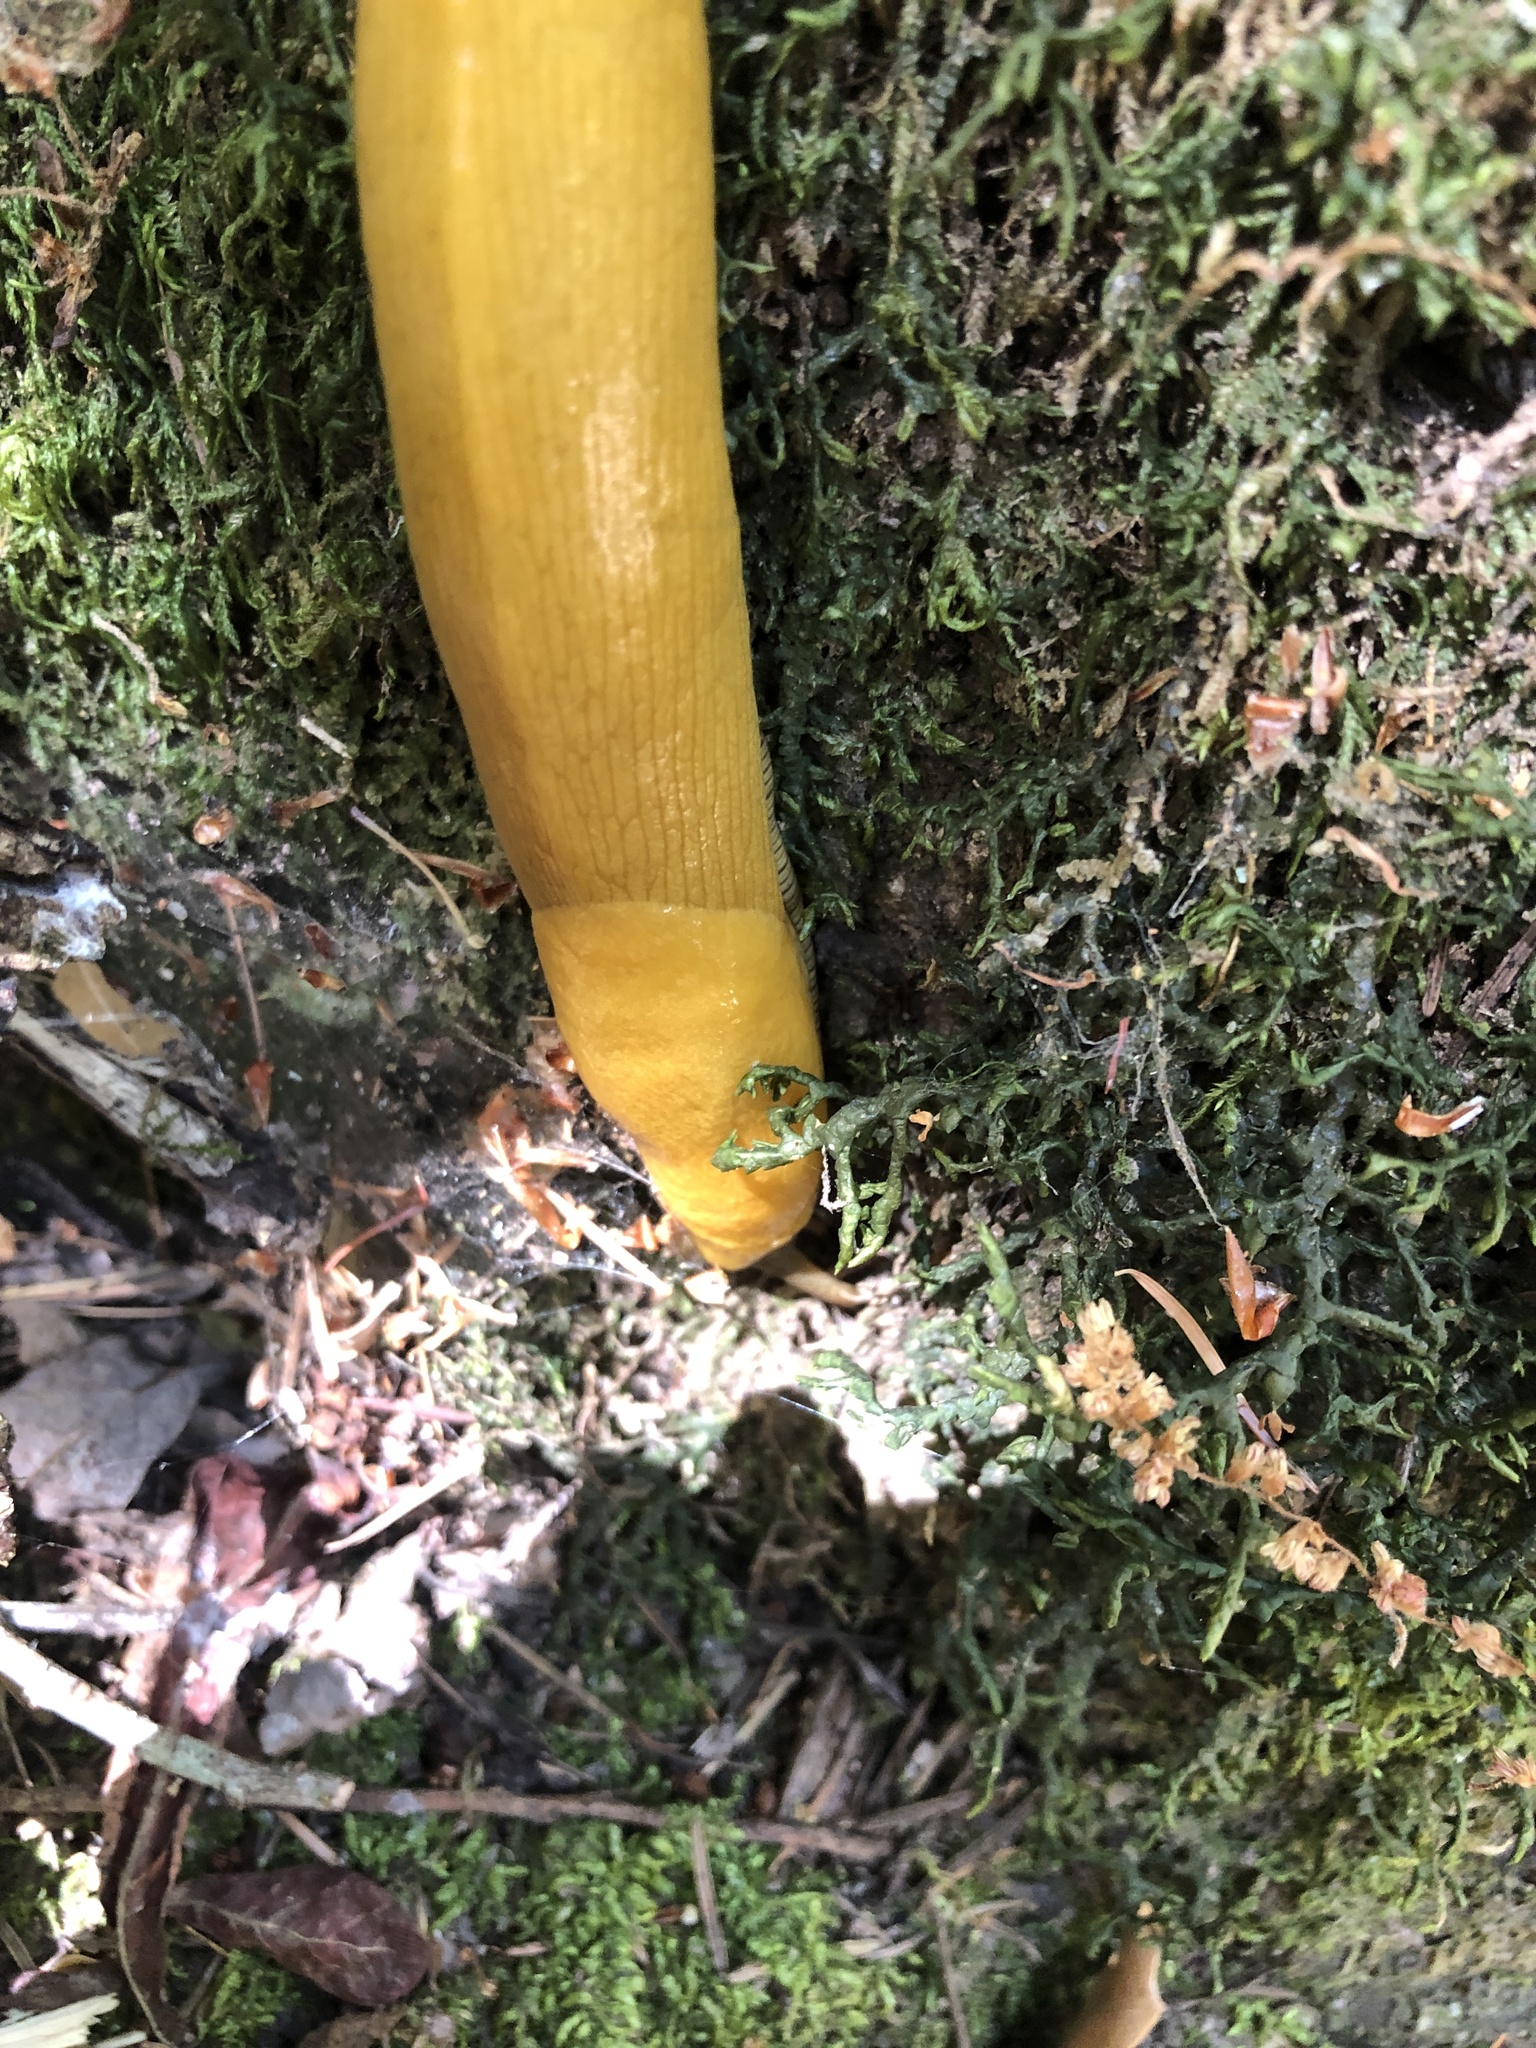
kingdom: Animalia
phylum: Mollusca
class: Gastropoda
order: Stylommatophora
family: Ariolimacidae
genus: Ariolimax
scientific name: Ariolimax
